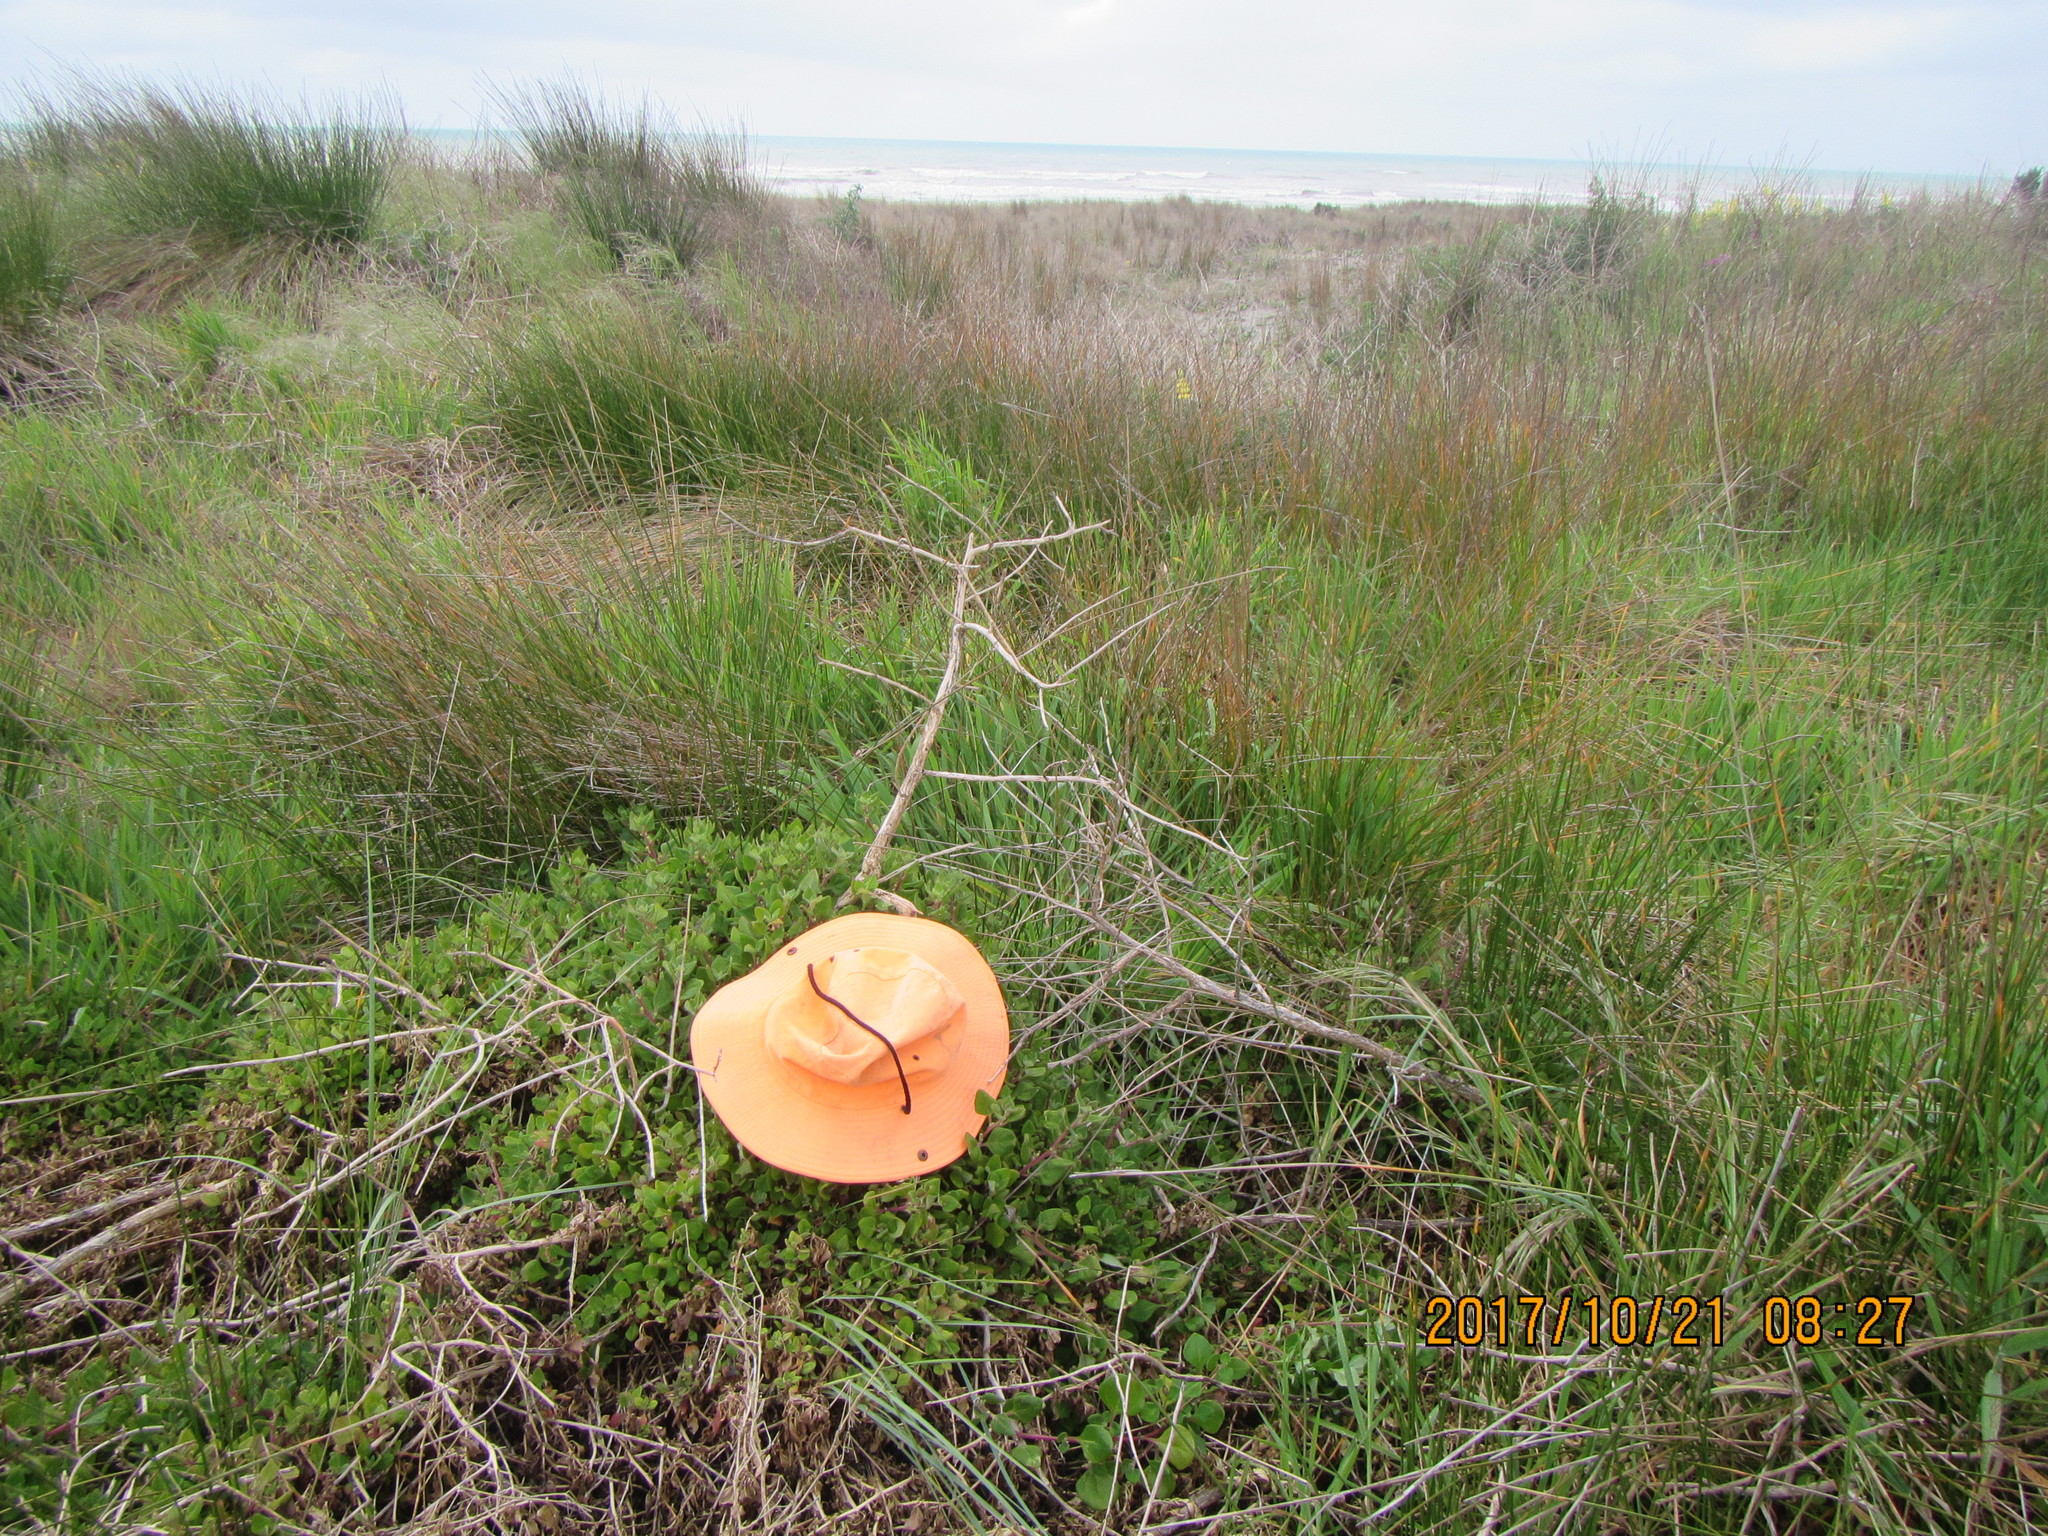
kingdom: Plantae
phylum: Tracheophyta
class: Magnoliopsida
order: Caryophyllales
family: Aizoaceae
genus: Tetragonia
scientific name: Tetragonia implexicoma
